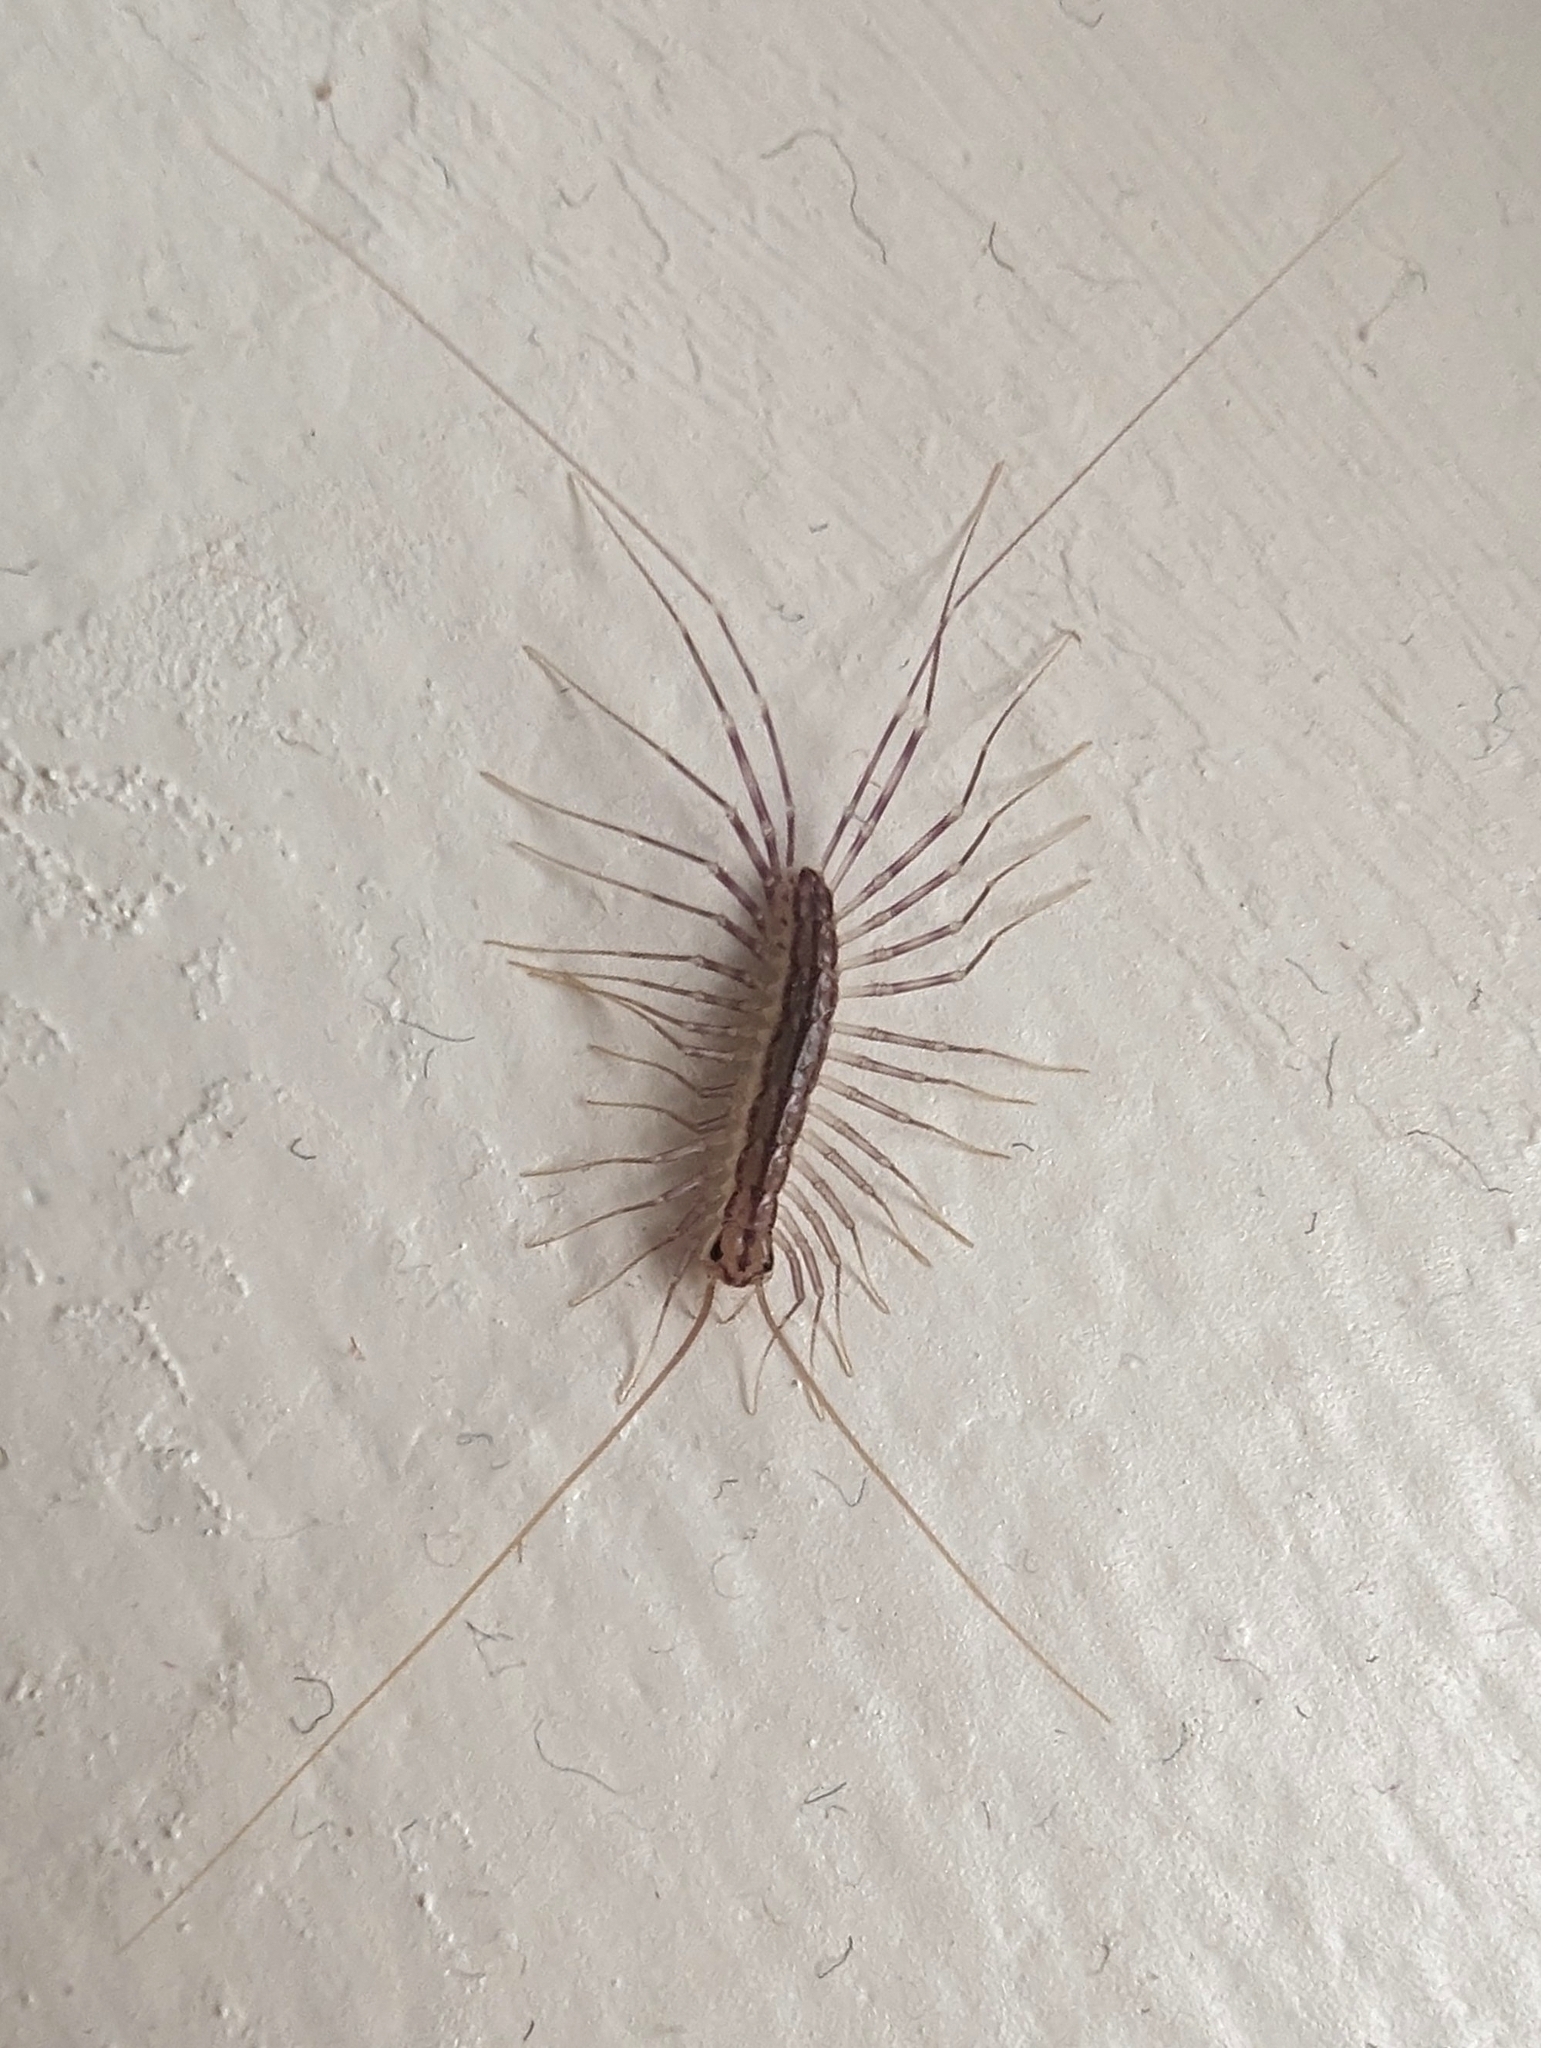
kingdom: Animalia
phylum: Arthropoda
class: Chilopoda
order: Scutigeromorpha
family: Scutigeridae
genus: Scutigera
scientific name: Scutigera coleoptrata
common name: House centipede
